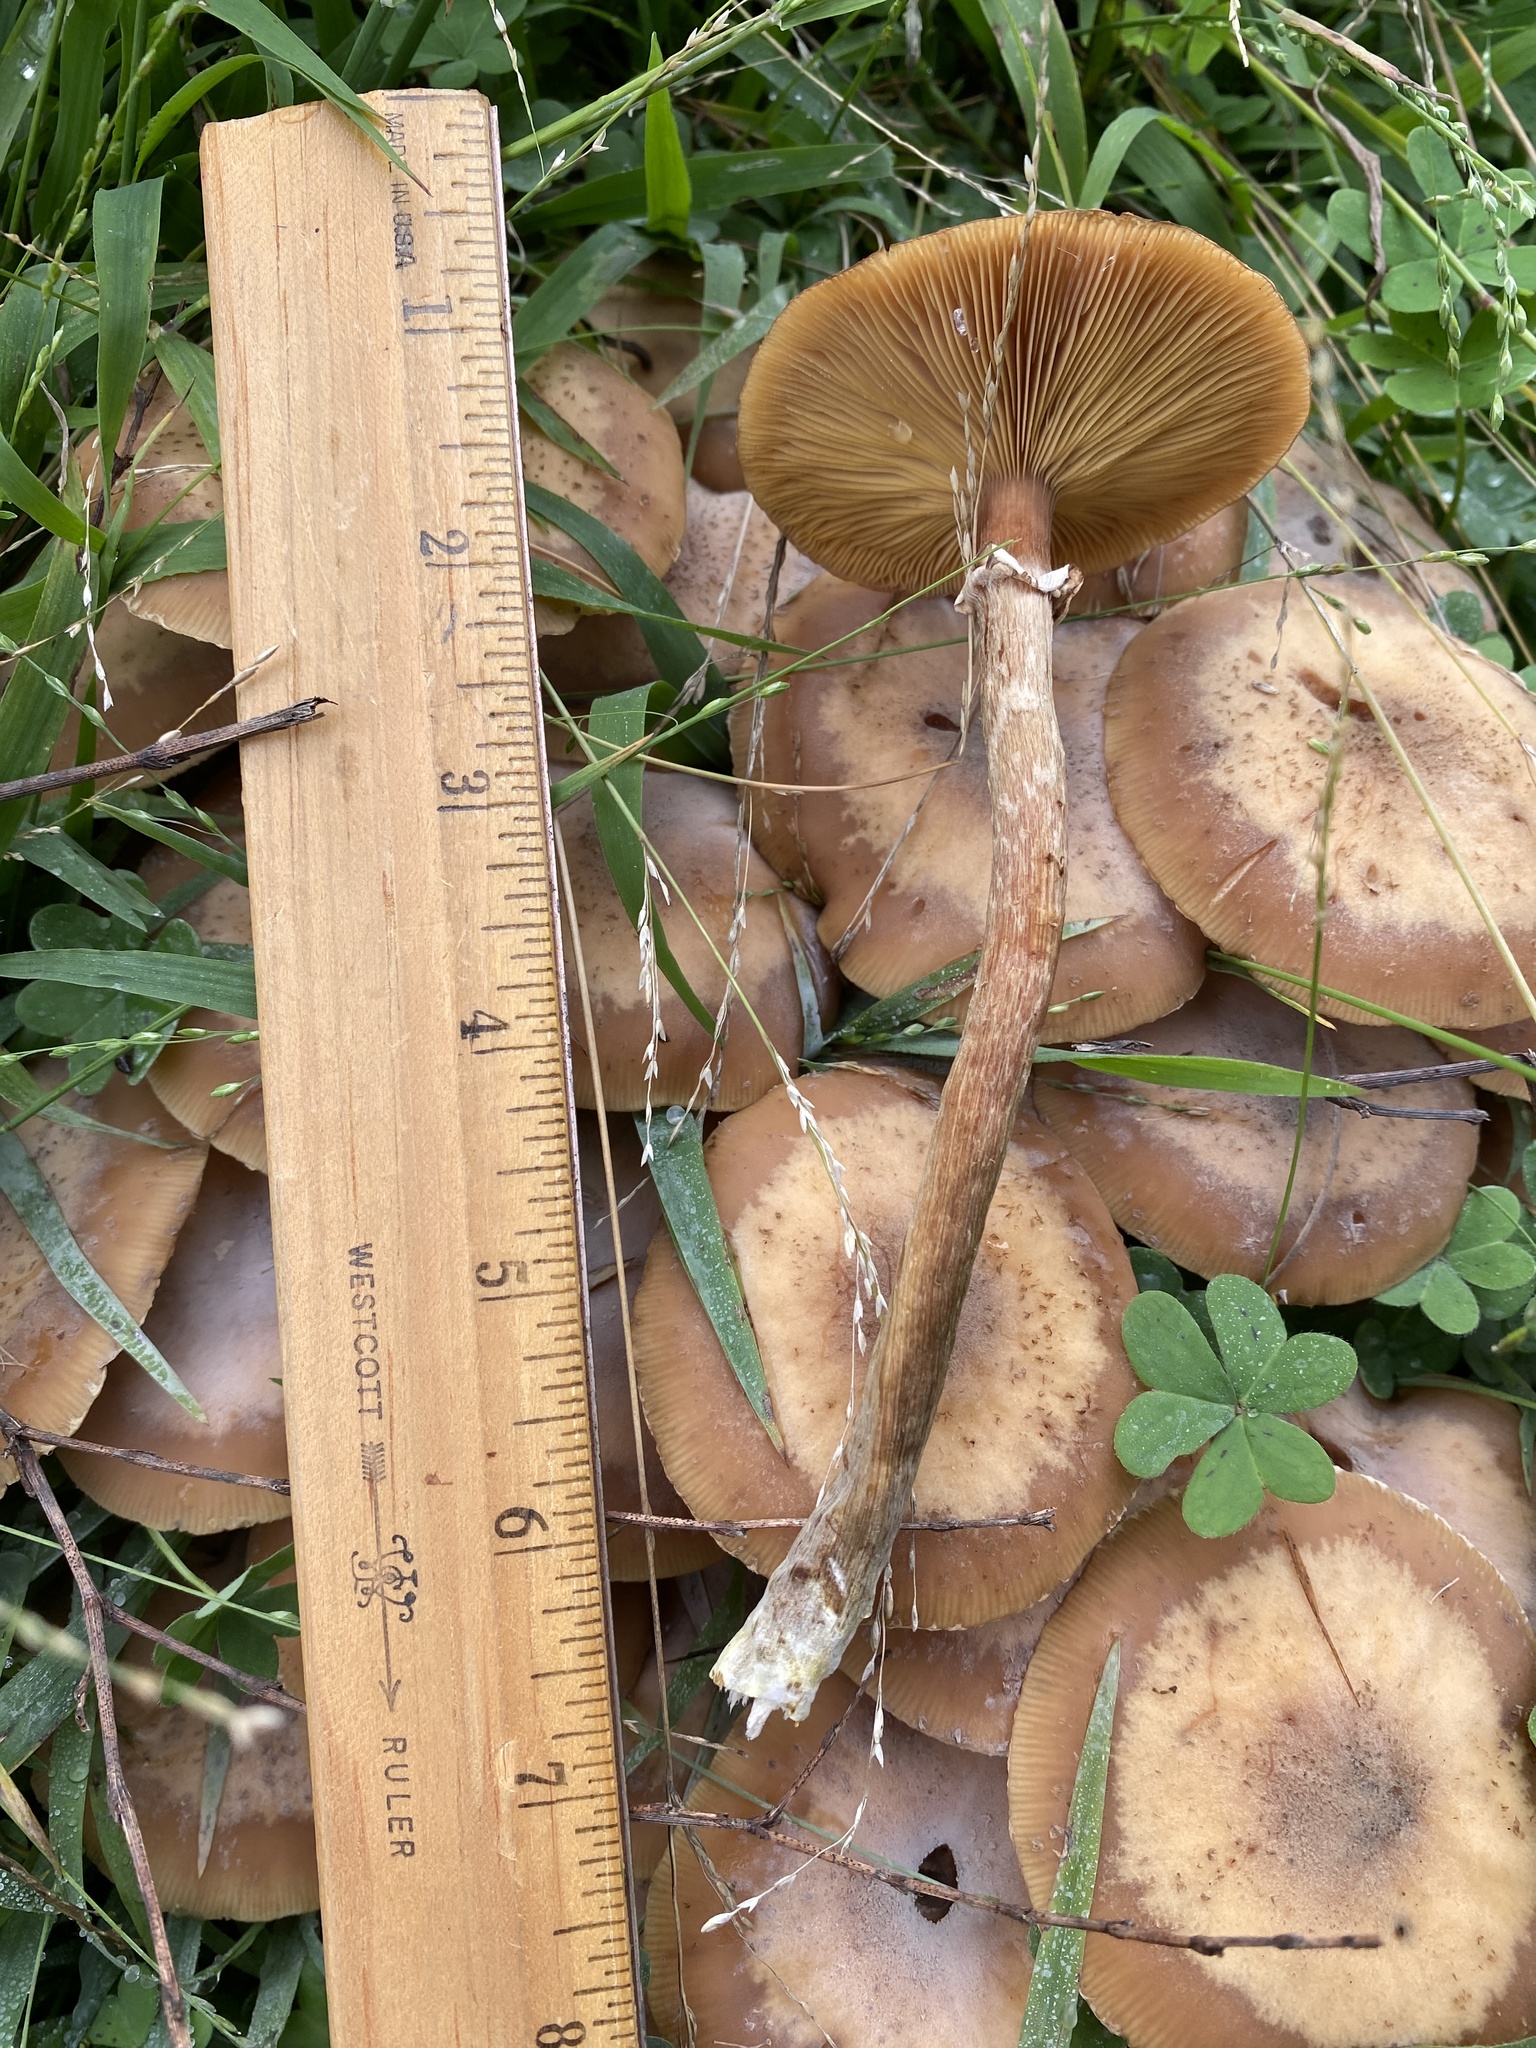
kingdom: Fungi
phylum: Basidiomycota
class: Agaricomycetes
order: Agaricales
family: Physalacriaceae
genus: Armillaria
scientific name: Armillaria mellea
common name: Honey fungus
